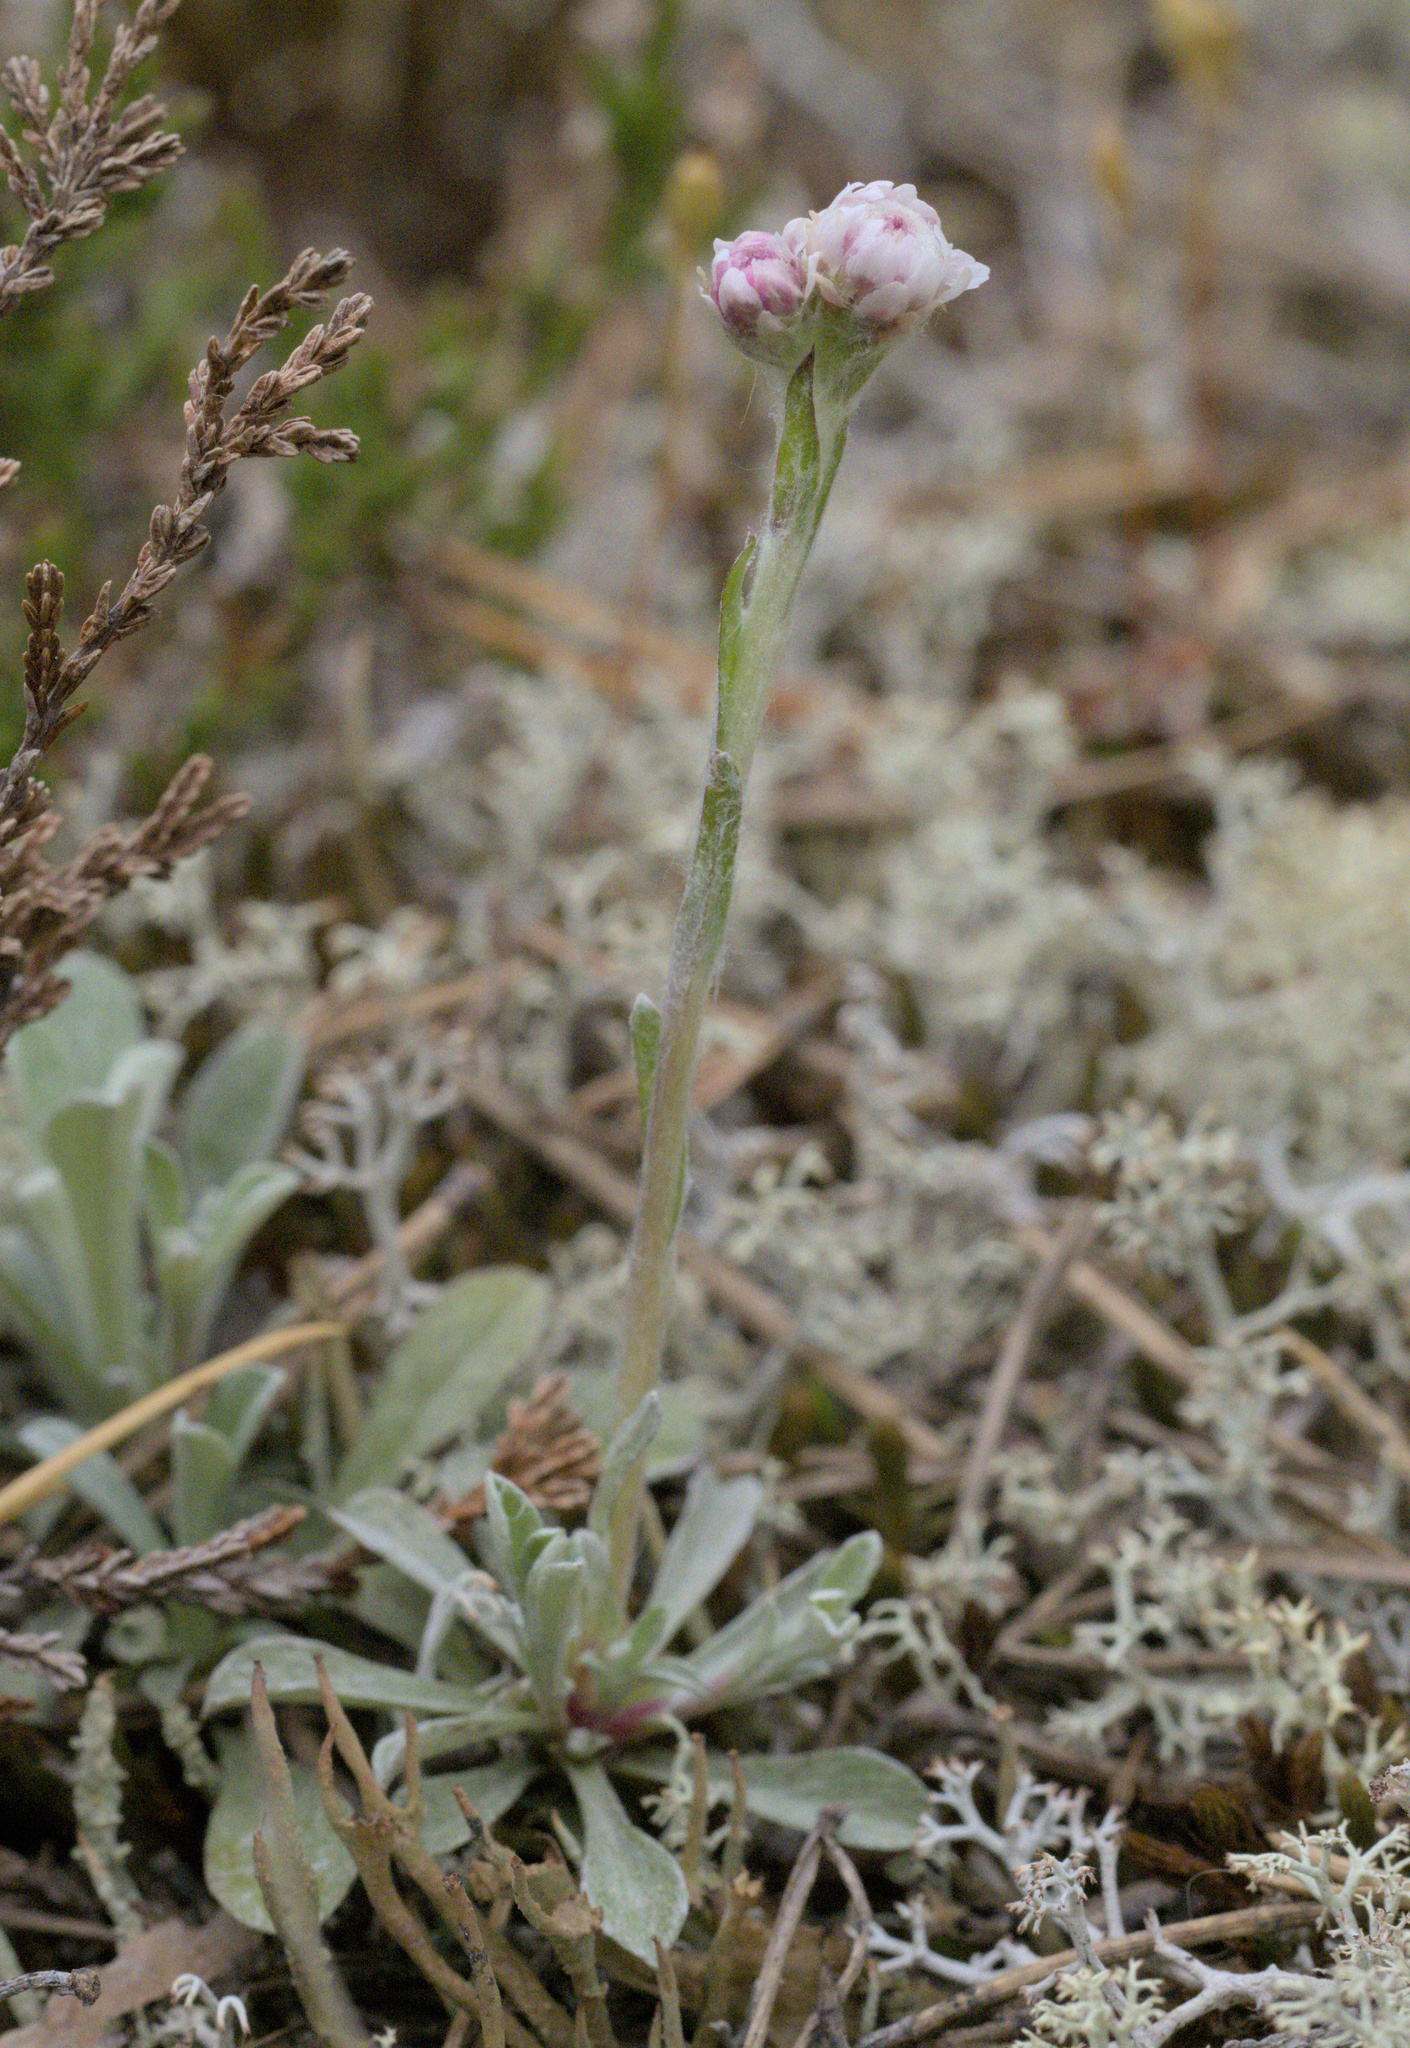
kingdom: Plantae
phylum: Tracheophyta
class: Magnoliopsida
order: Asterales
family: Asteraceae
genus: Antennaria
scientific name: Antennaria dioica
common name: Mountain everlasting
